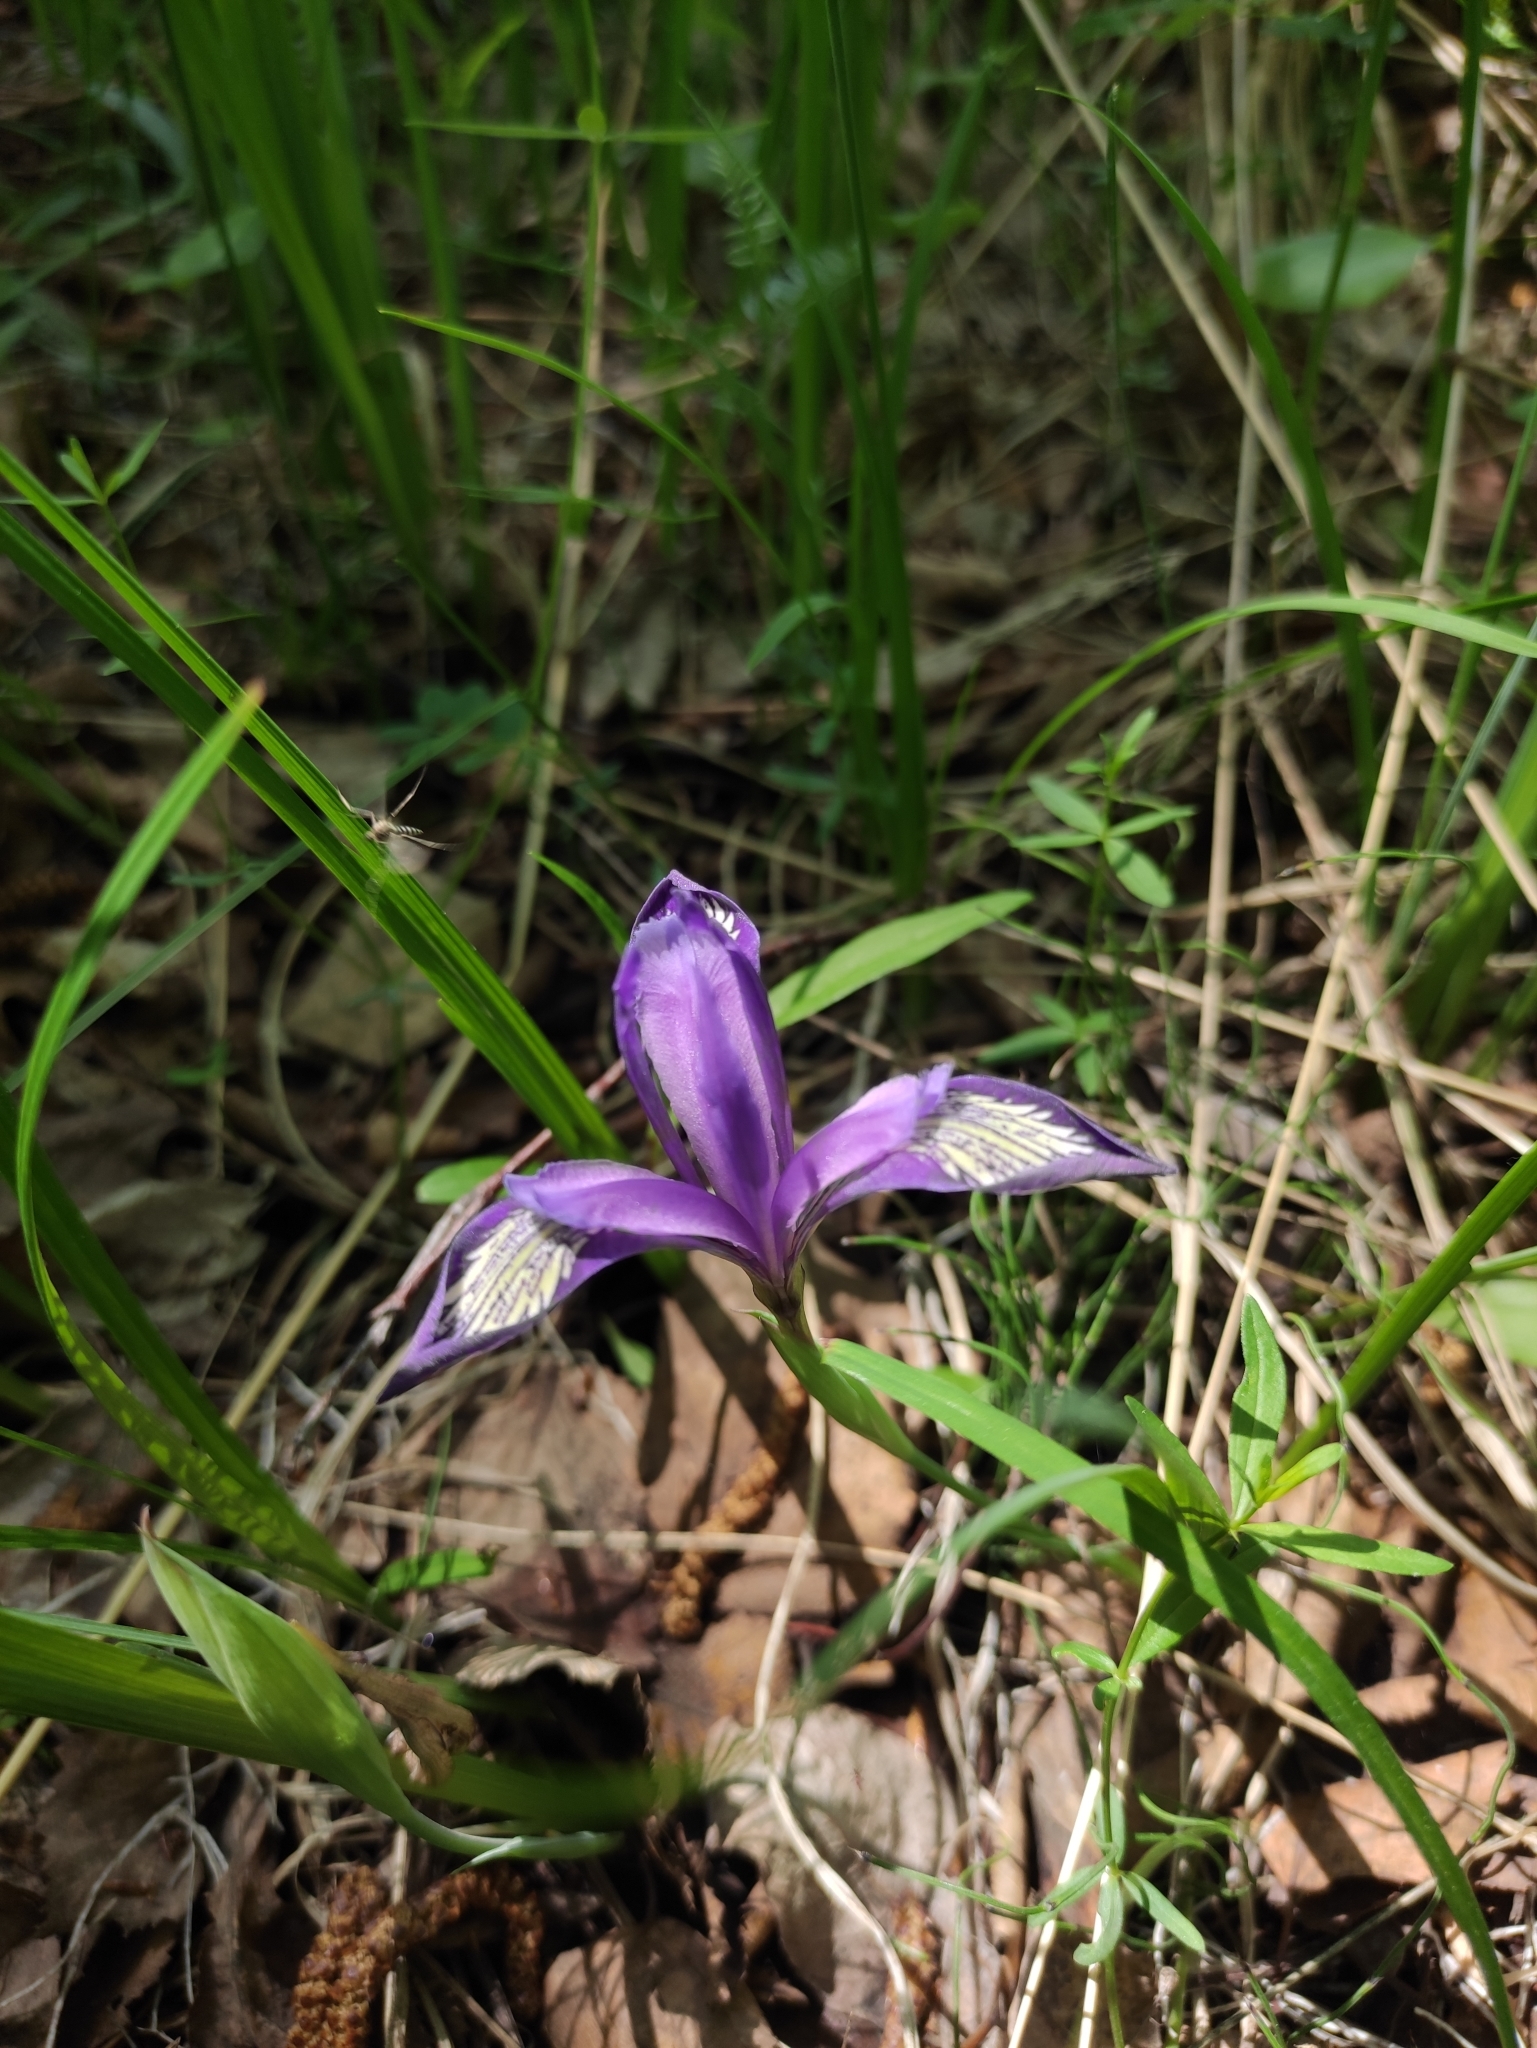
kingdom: Plantae
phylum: Tracheophyta
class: Liliopsida
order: Asparagales
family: Iridaceae
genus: Iris
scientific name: Iris ruthenica
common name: Purple-bract iris
